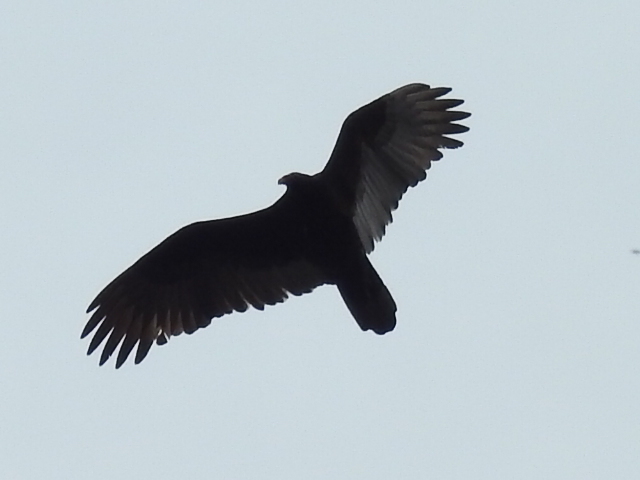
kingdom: Animalia
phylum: Chordata
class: Aves
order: Accipitriformes
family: Cathartidae
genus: Cathartes
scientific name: Cathartes aura
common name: Turkey vulture
